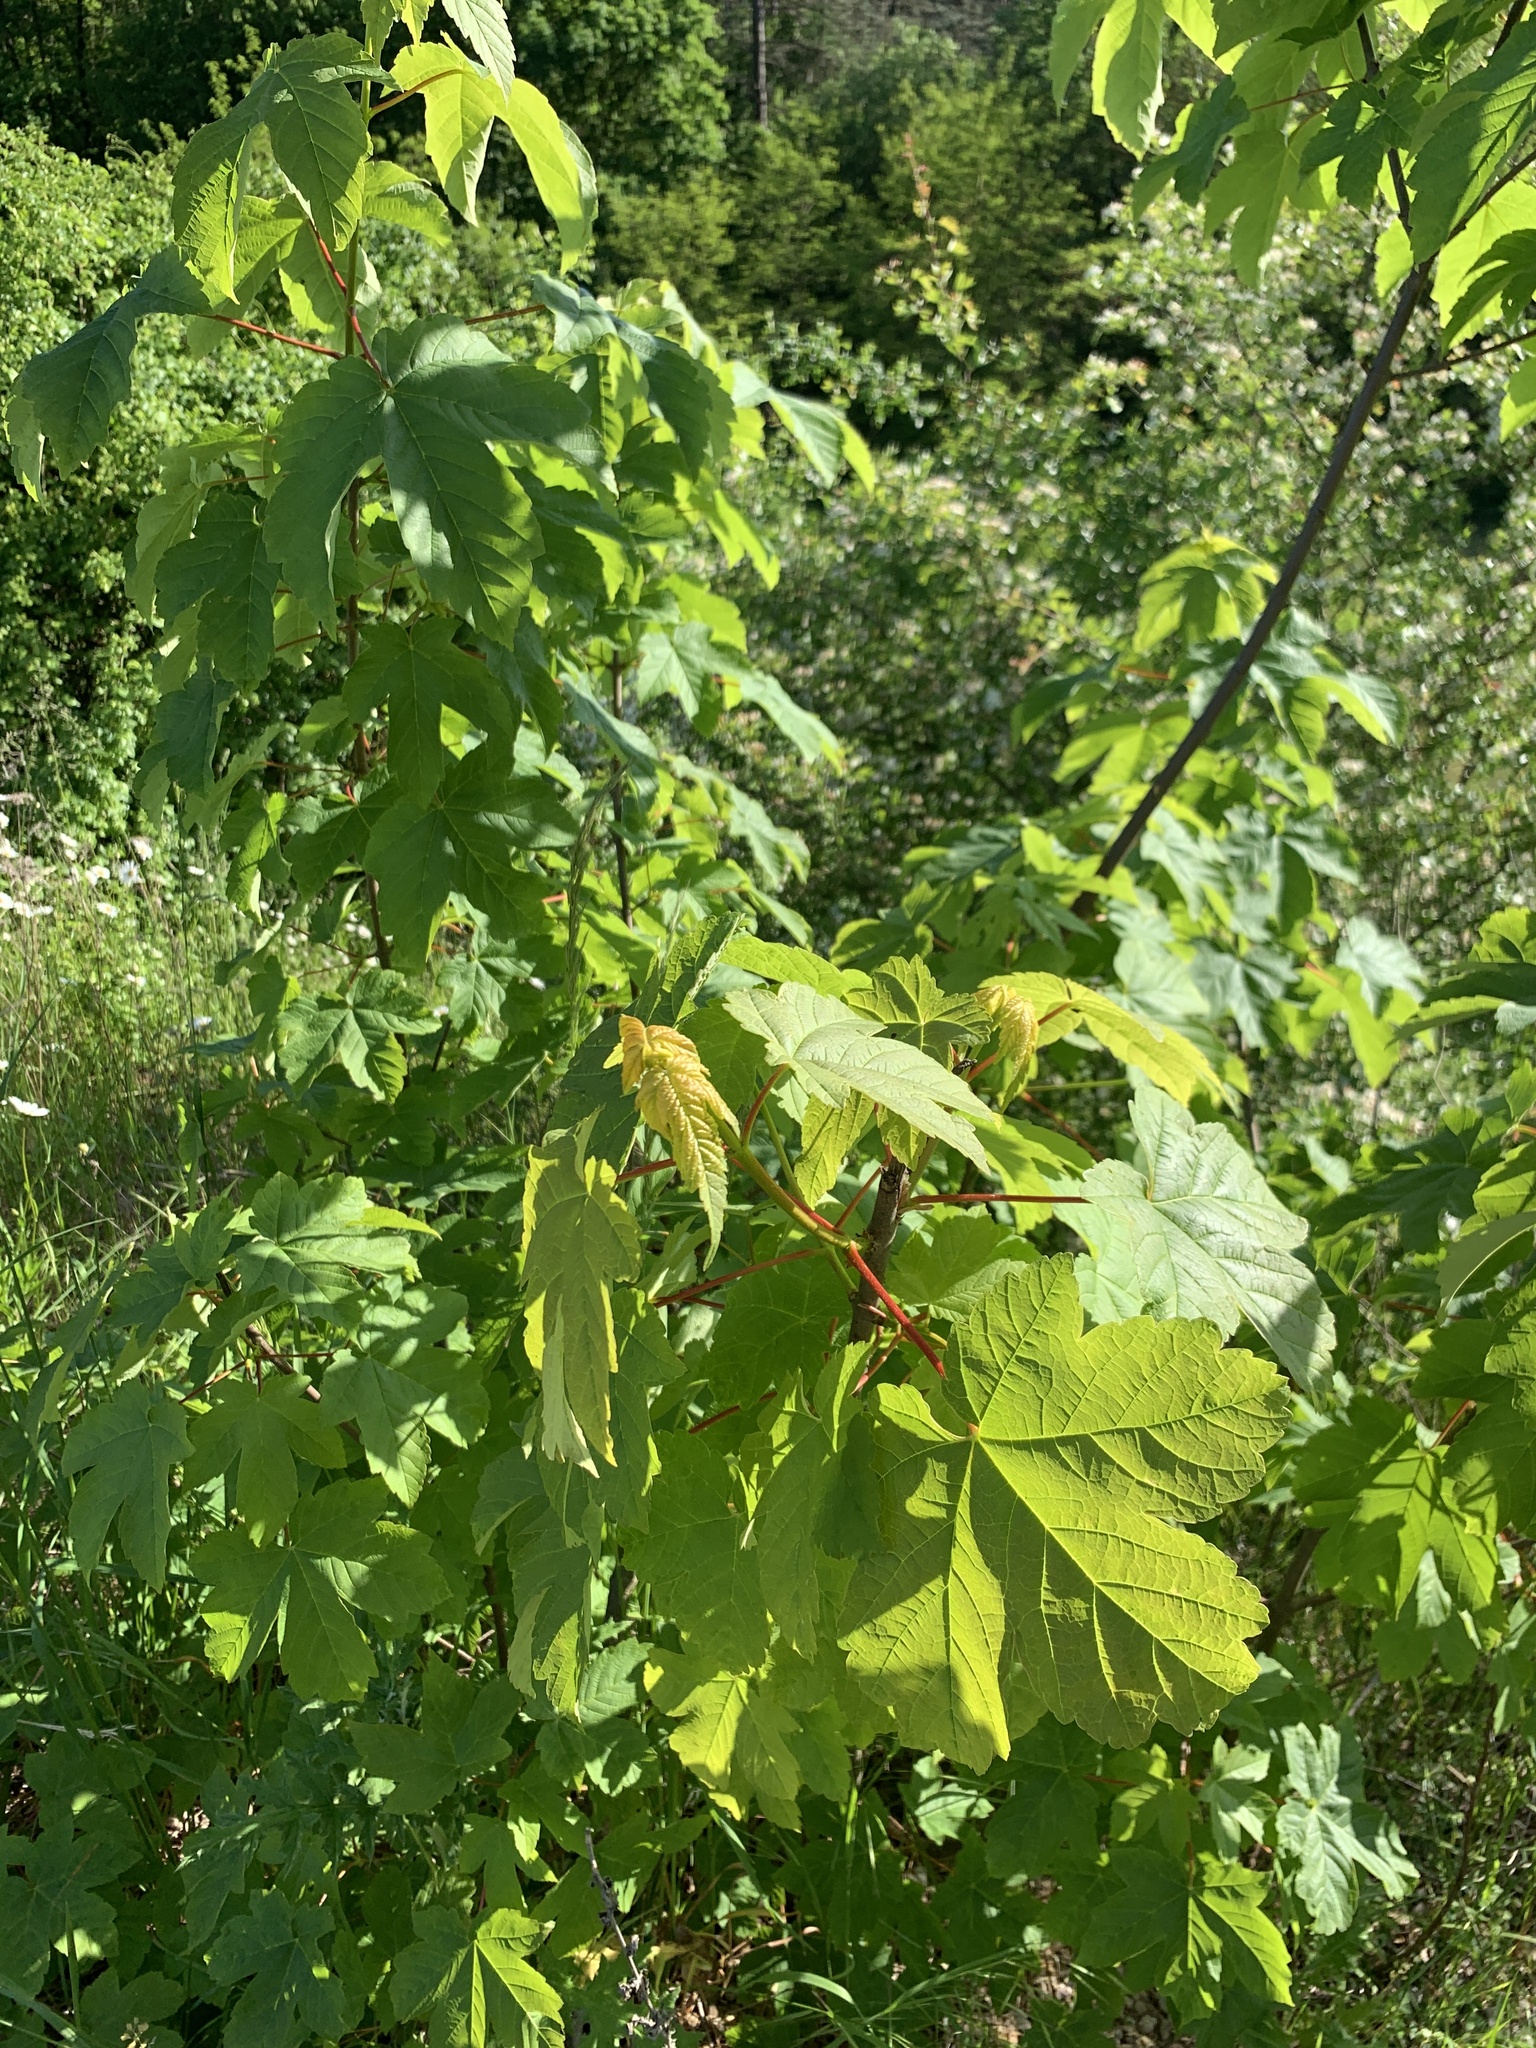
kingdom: Plantae
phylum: Tracheophyta
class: Magnoliopsida
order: Sapindales
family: Sapindaceae
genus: Acer
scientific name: Acer pseudoplatanus
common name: Sycamore
